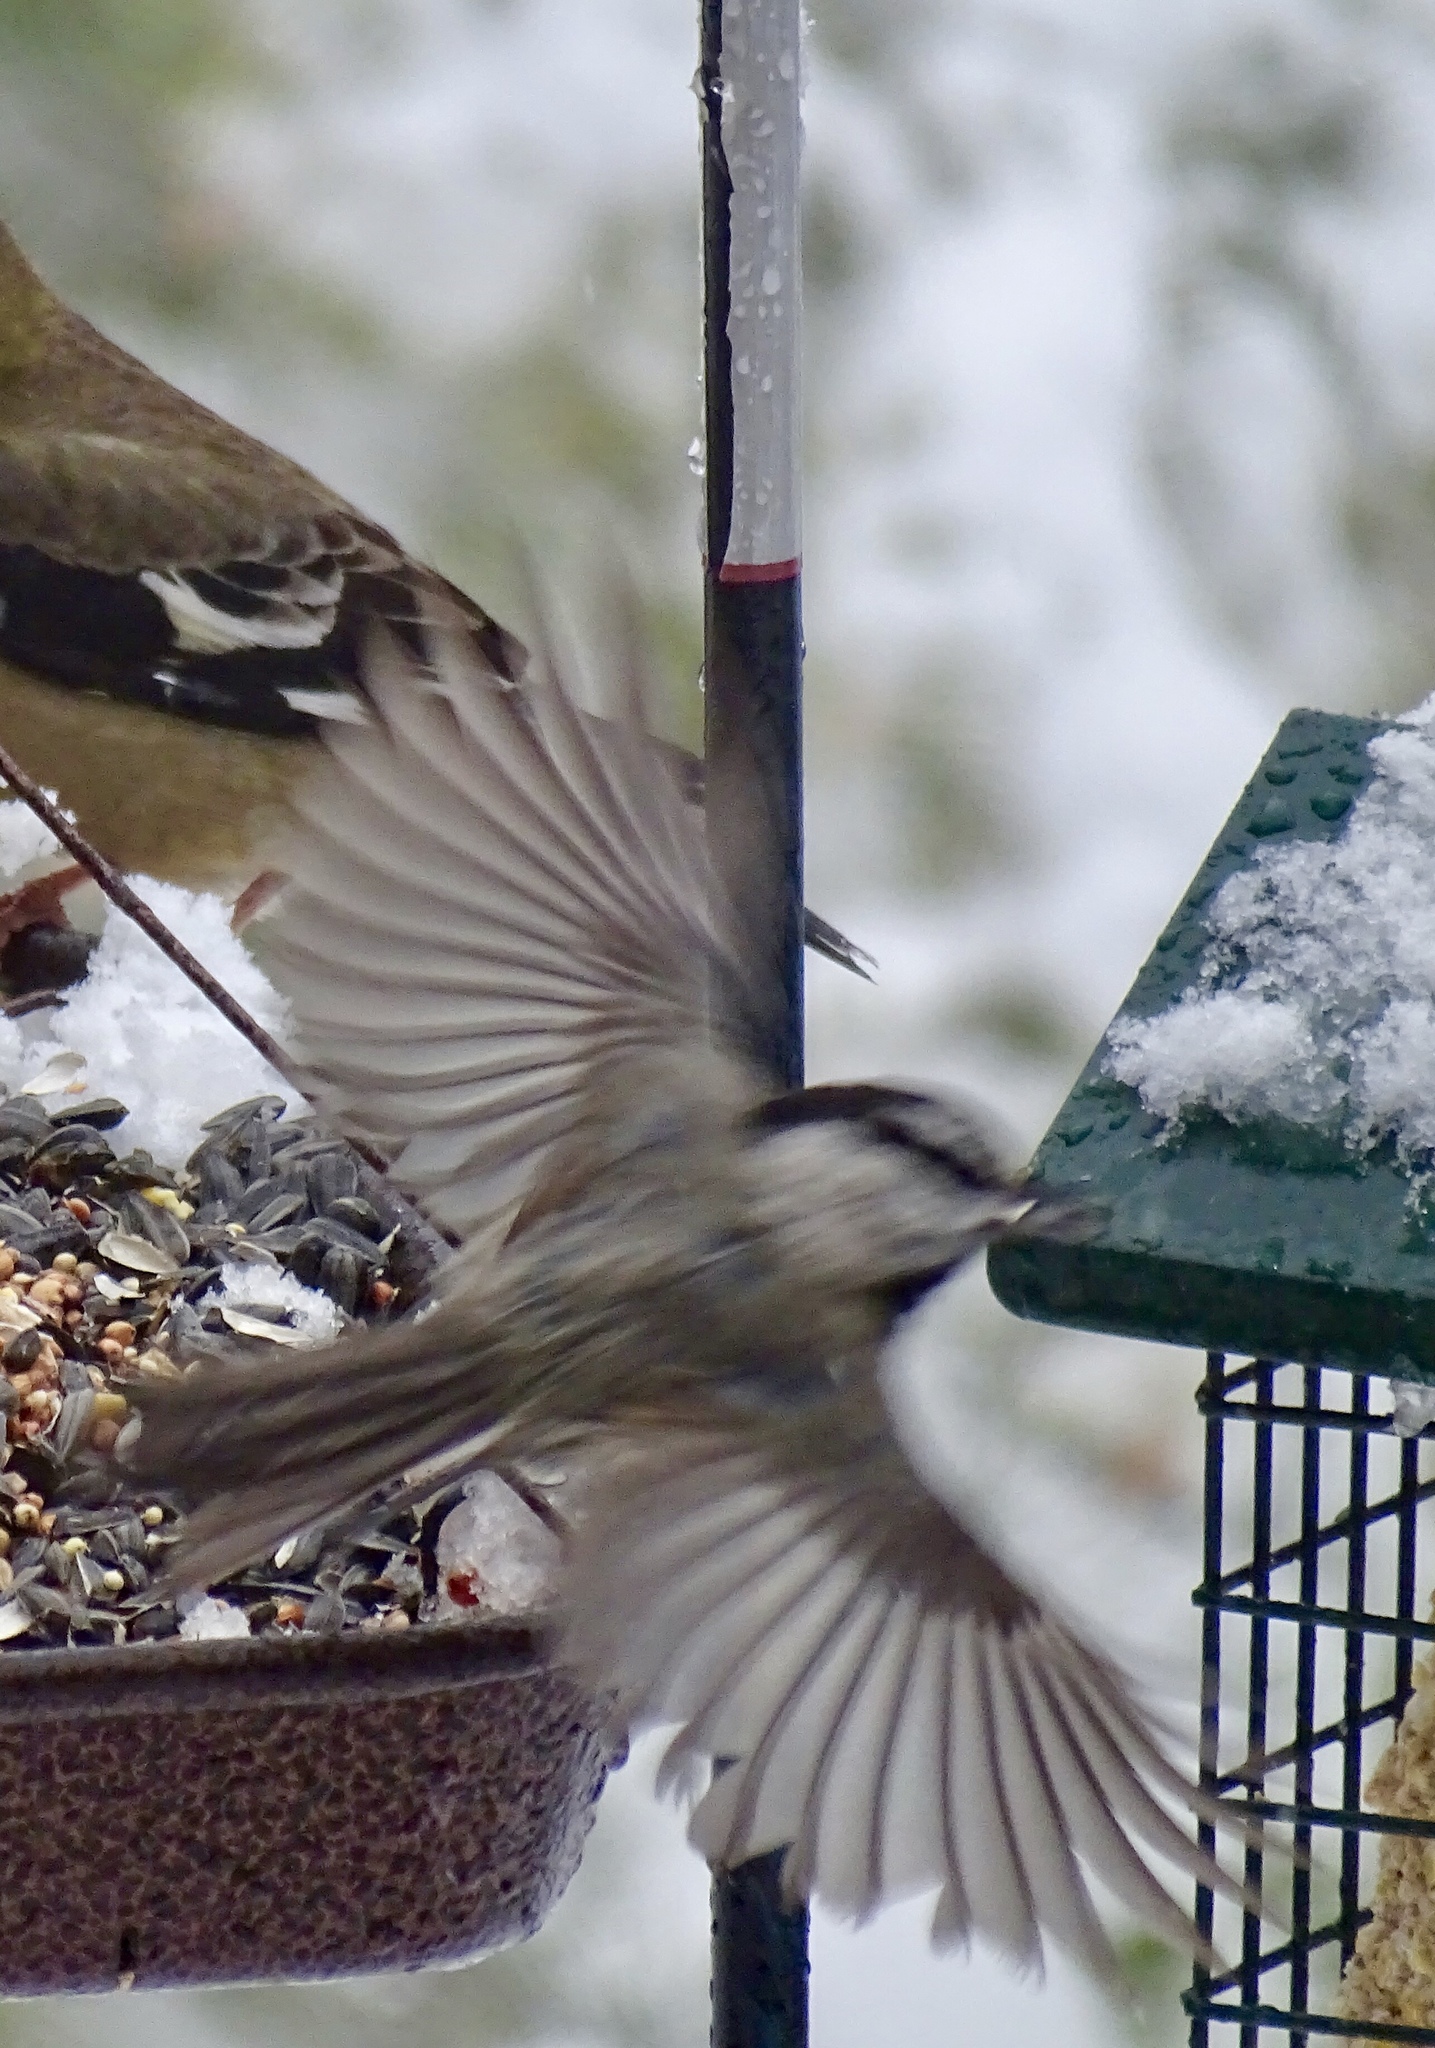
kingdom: Animalia
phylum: Chordata
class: Aves
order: Passeriformes
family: Paridae
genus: Poecile
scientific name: Poecile gambeli
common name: Mountain chickadee
